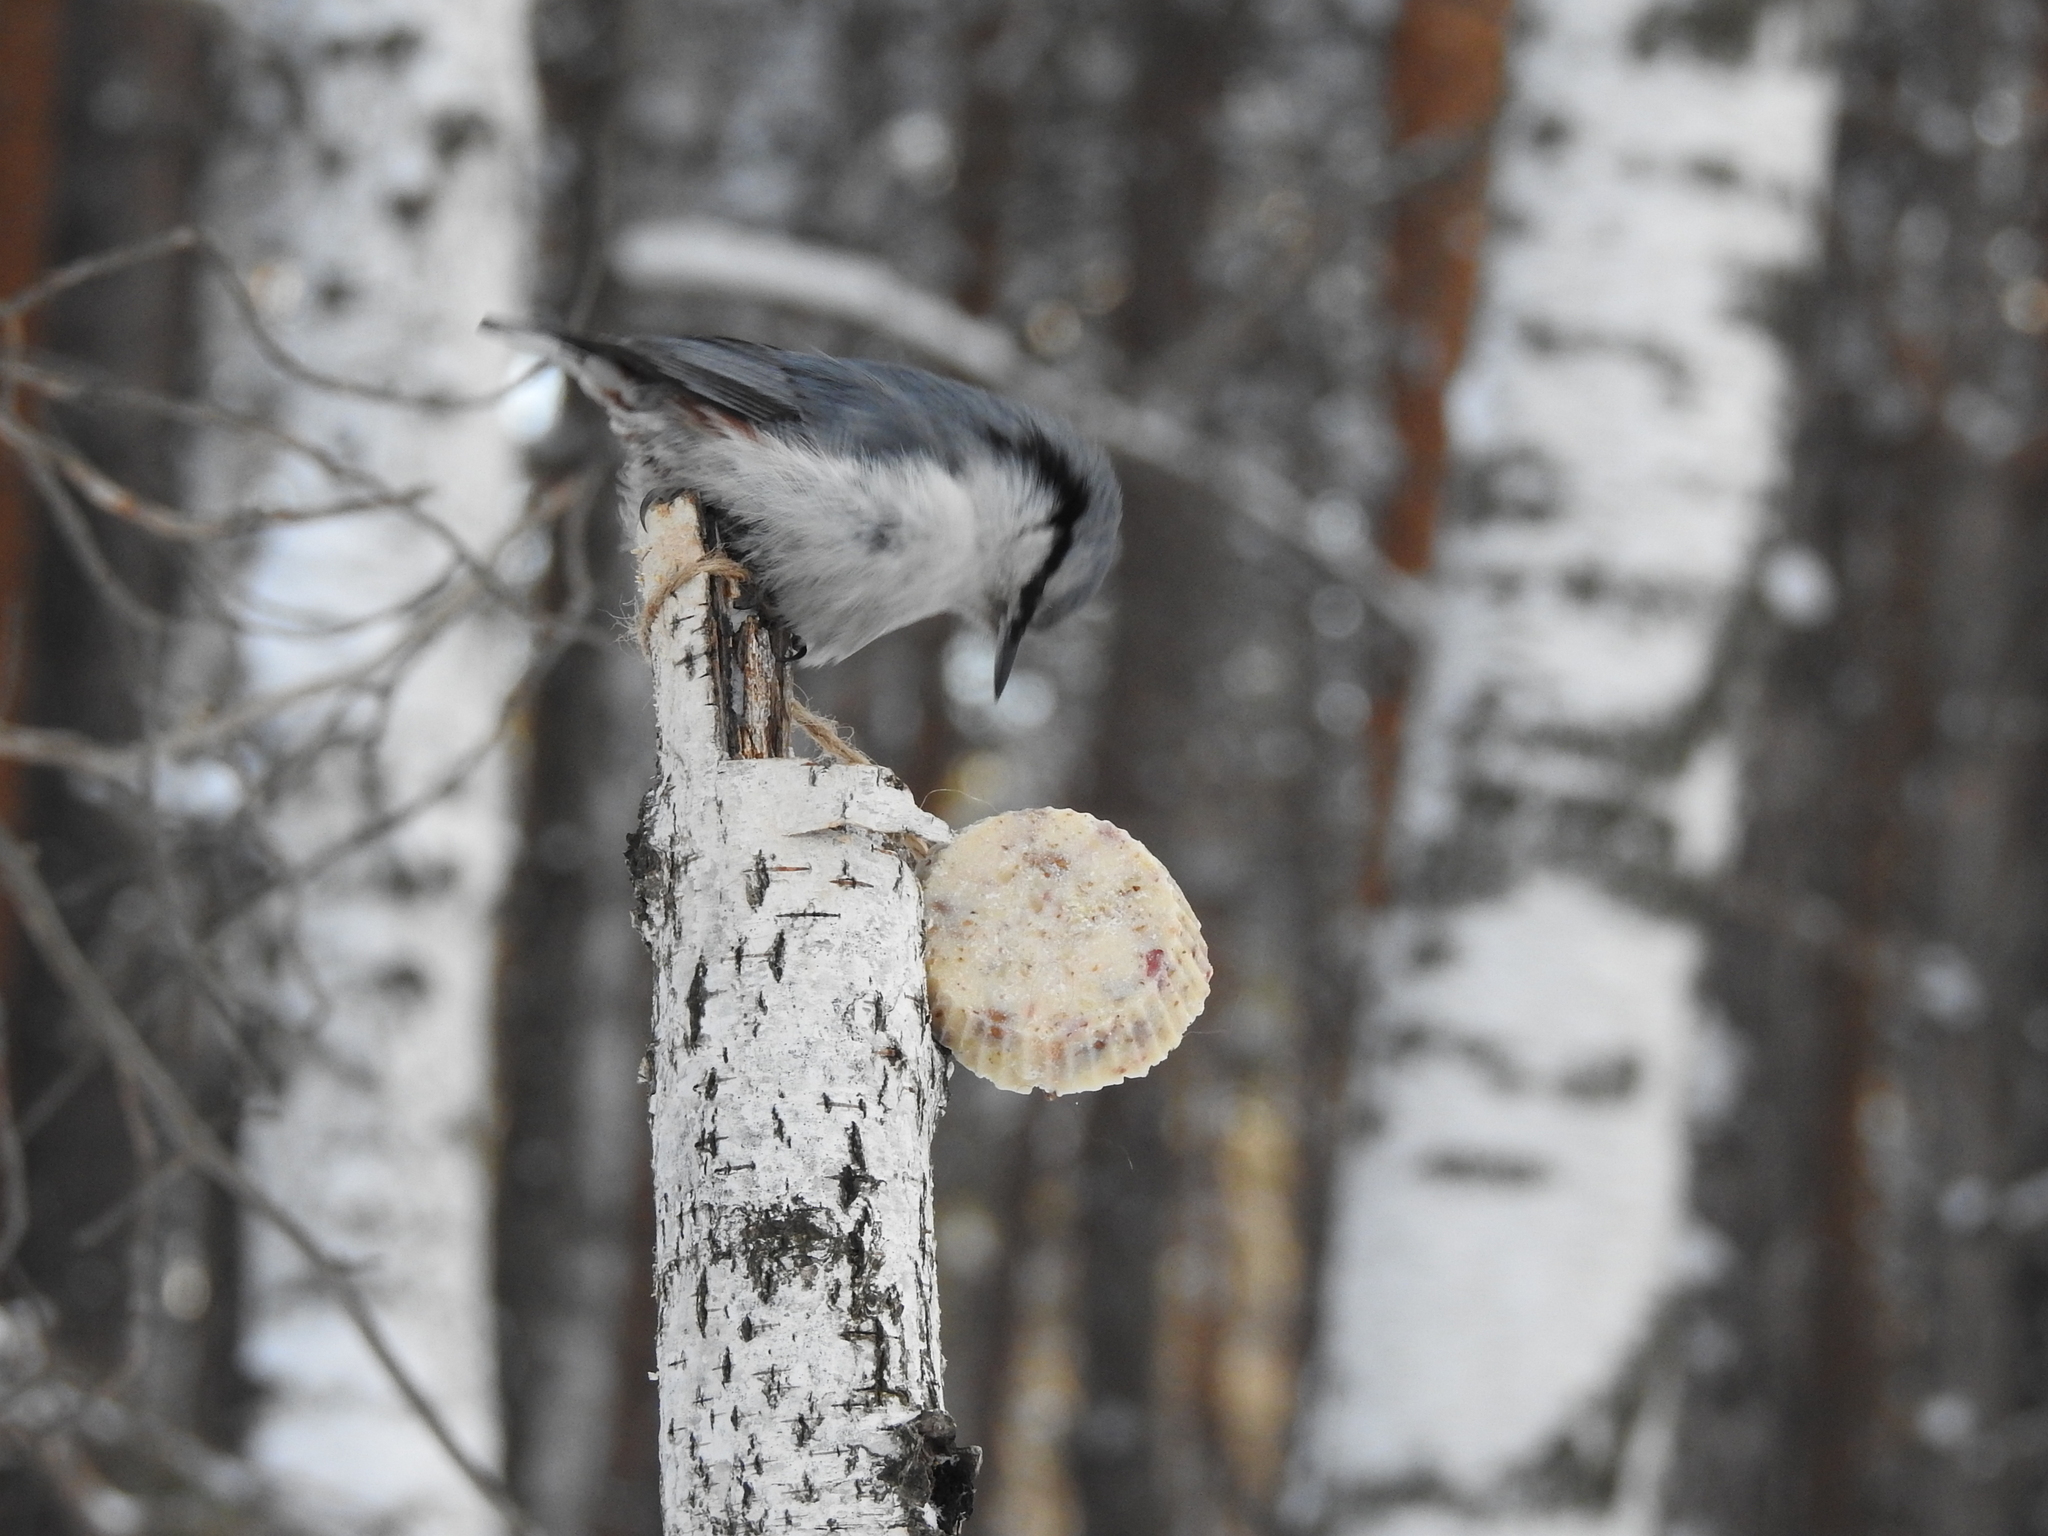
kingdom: Animalia
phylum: Chordata
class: Aves
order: Passeriformes
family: Sittidae
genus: Sitta
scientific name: Sitta europaea
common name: Eurasian nuthatch
